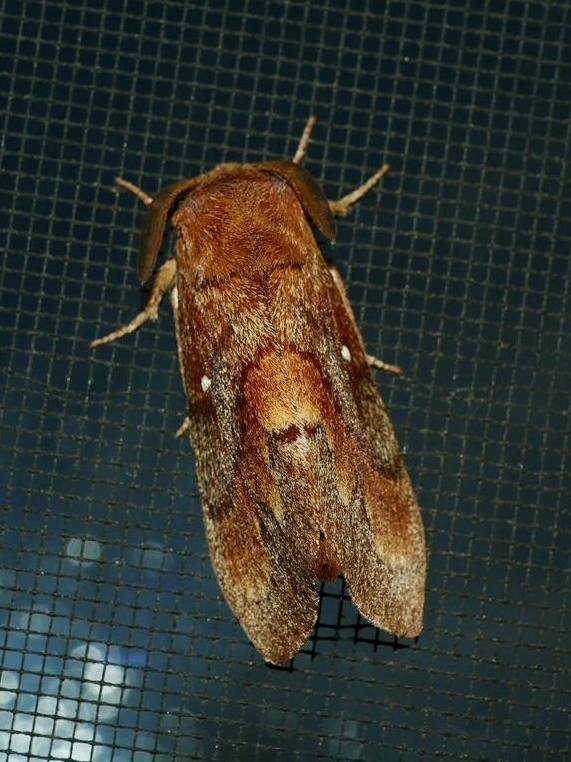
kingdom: Animalia
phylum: Arthropoda
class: Insecta
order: Lepidoptera
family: Lasiocampidae
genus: Dendrolimus
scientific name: Dendrolimus pini
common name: Pine-tree lappet
